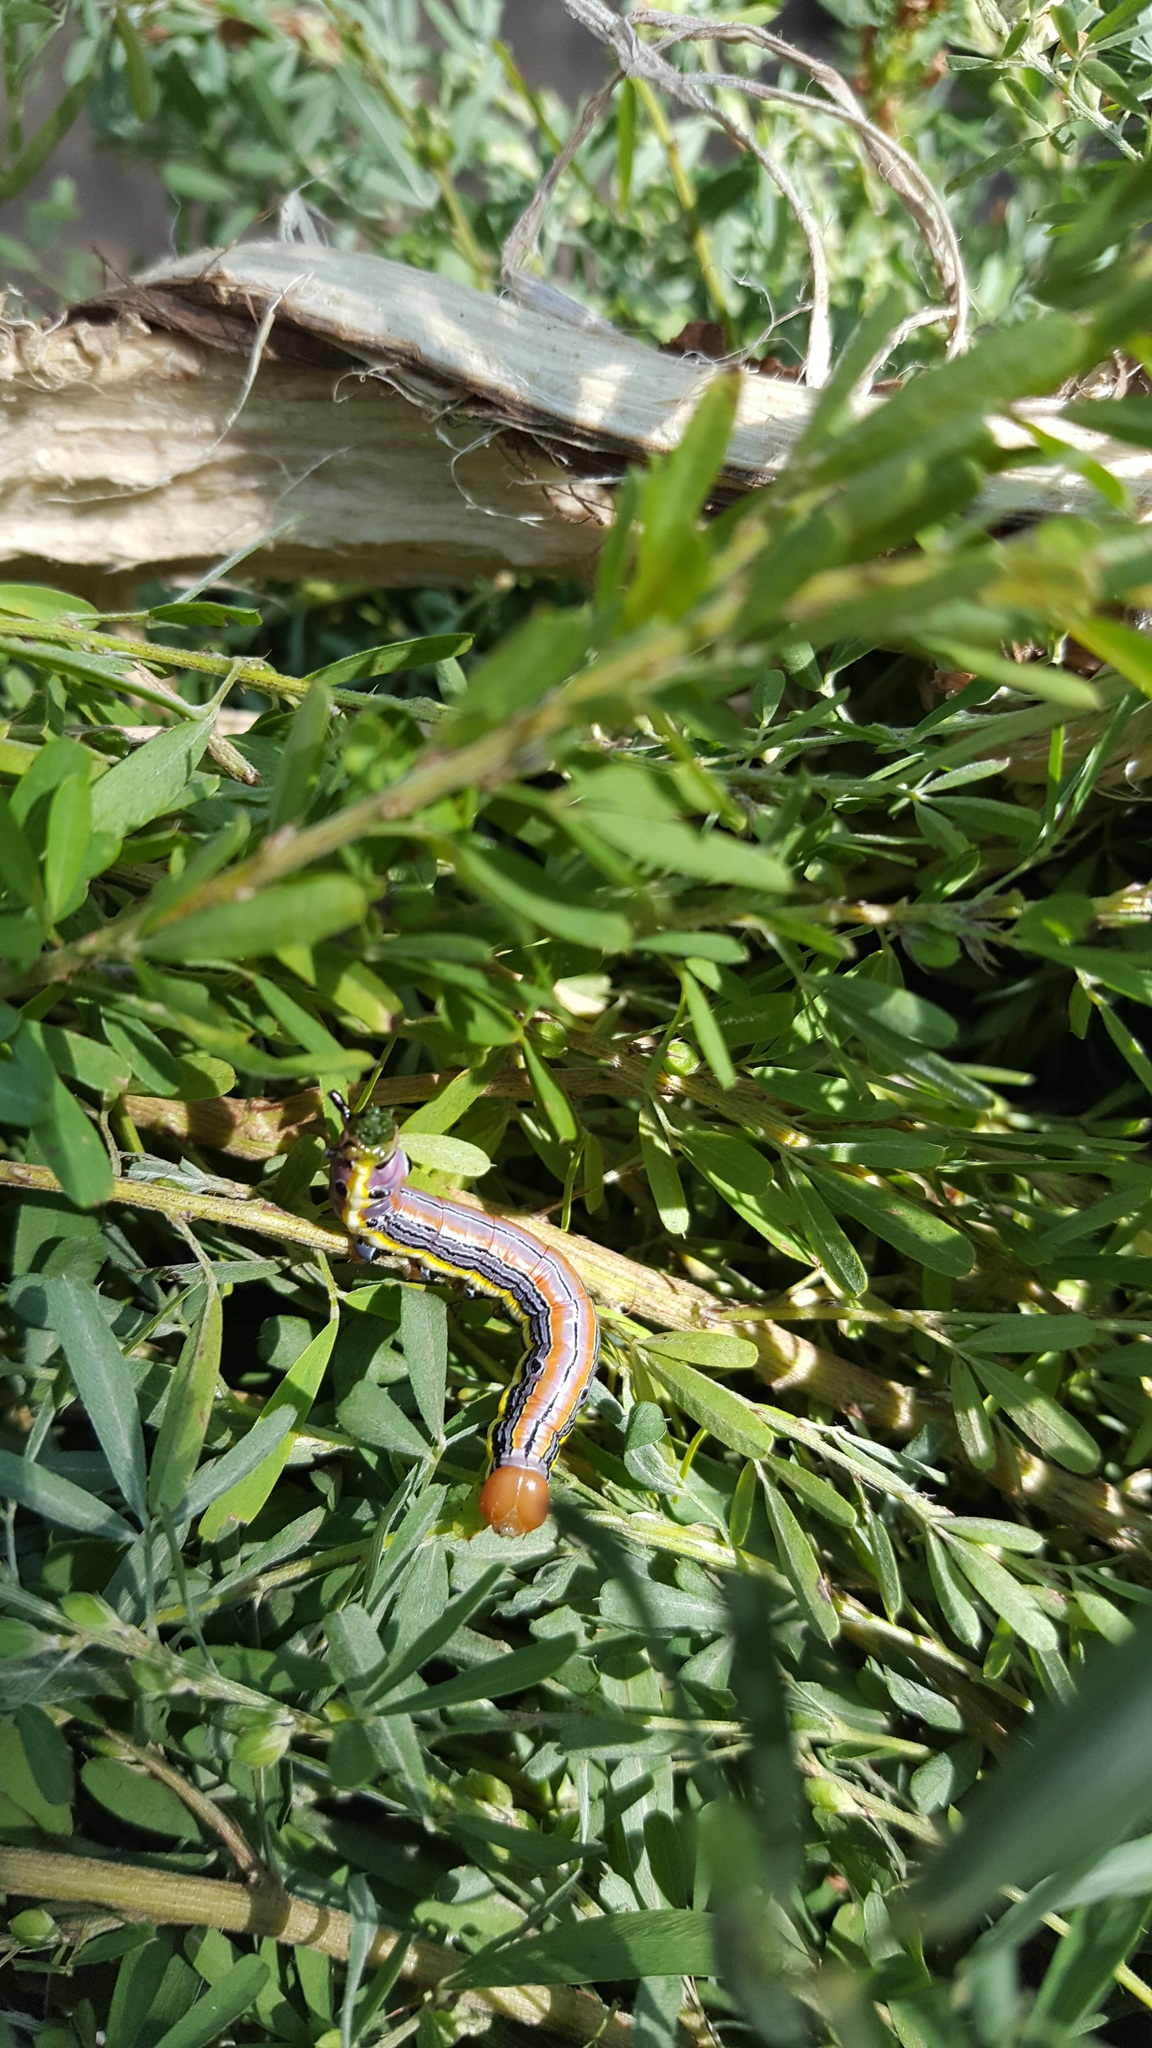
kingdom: Animalia
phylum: Arthropoda
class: Insecta
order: Lepidoptera
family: Notodontidae
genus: Dasylophia
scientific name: Dasylophia anguina
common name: Black-spotted prominent
